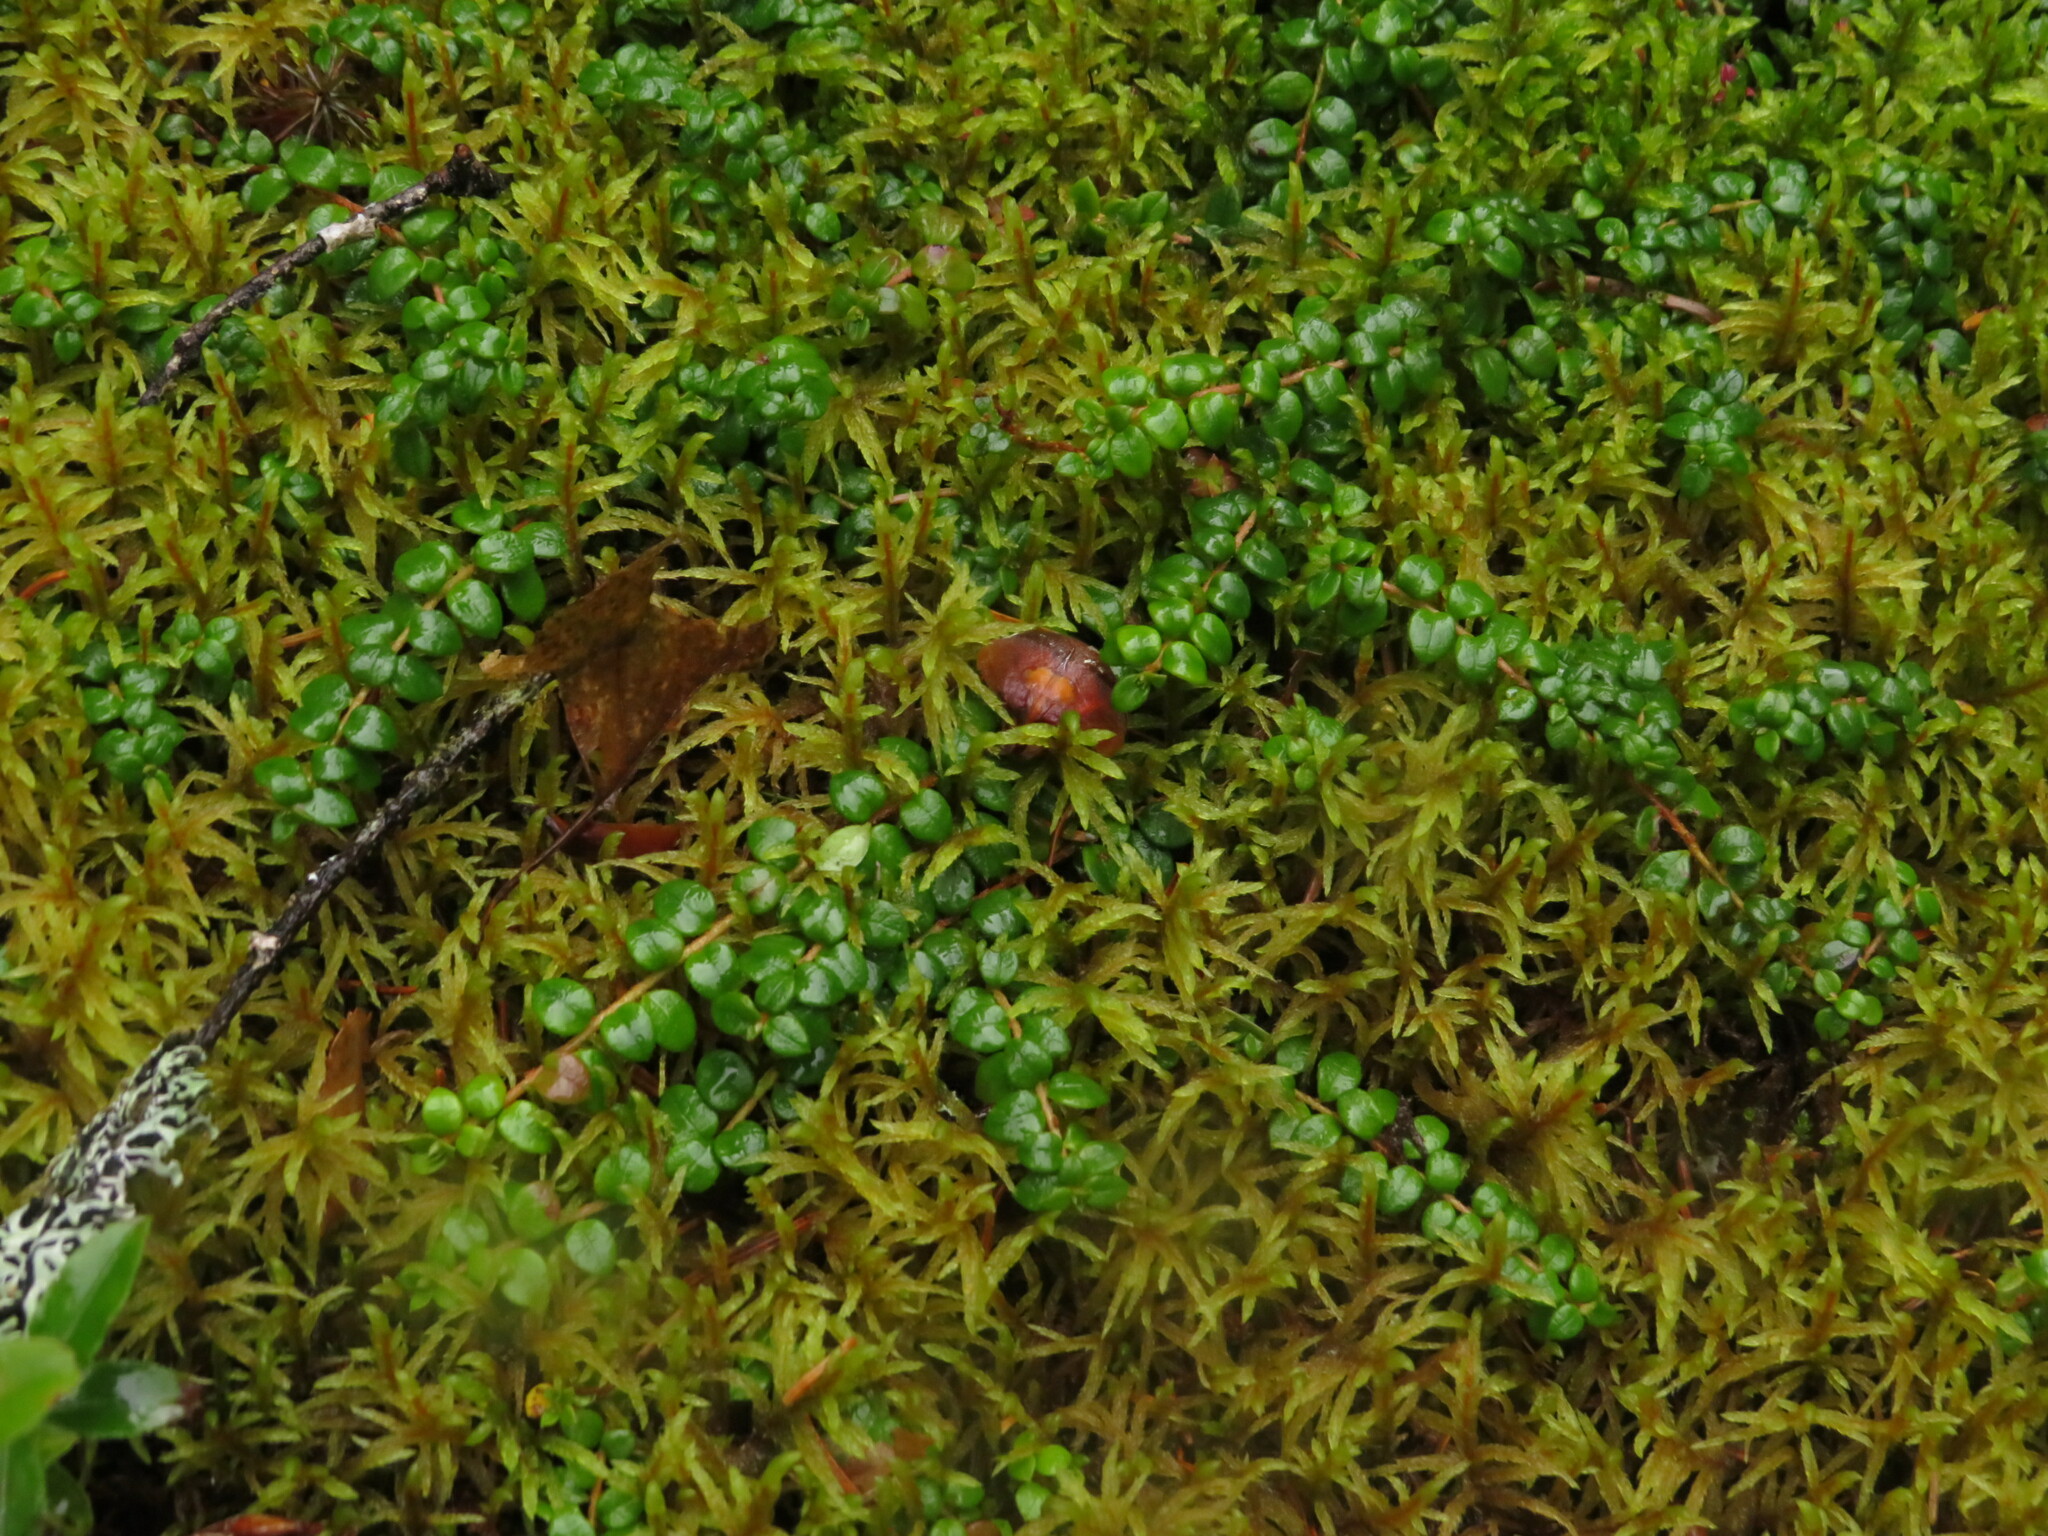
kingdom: Plantae
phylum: Tracheophyta
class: Magnoliopsida
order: Ericales
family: Ericaceae
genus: Gaultheria
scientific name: Gaultheria hispidula
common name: Cancer wintergreen
